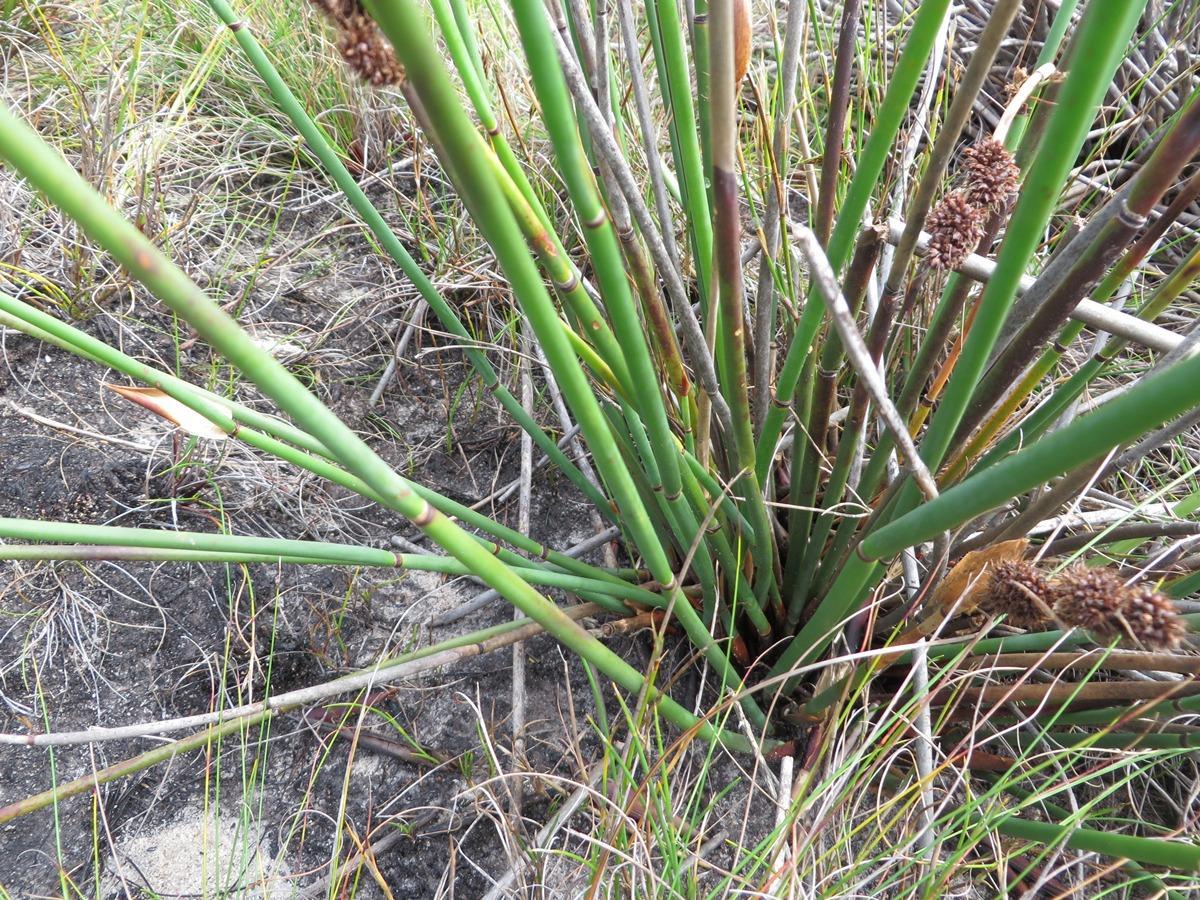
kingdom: Plantae
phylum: Tracheophyta
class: Liliopsida
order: Poales
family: Restionaceae
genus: Elegia
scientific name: Elegia cuspidata
